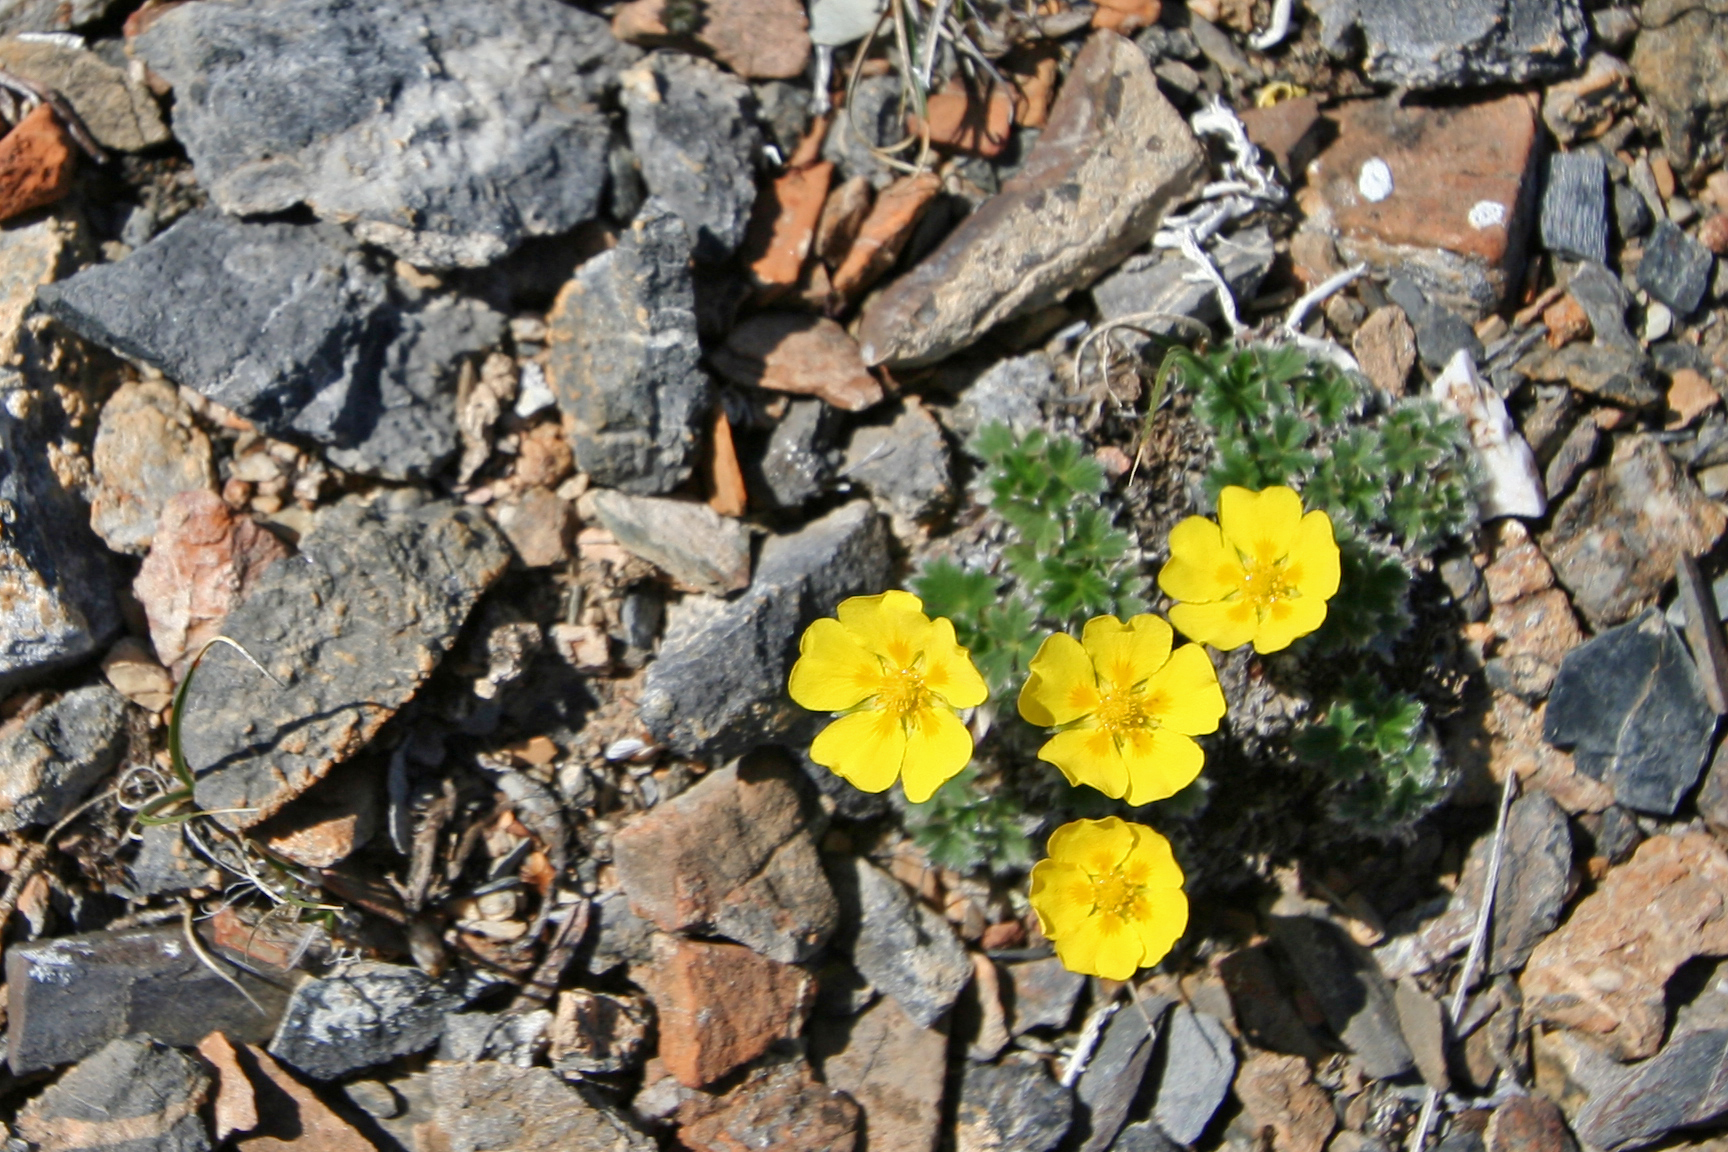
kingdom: Plantae
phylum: Tracheophyta
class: Magnoliopsida
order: Rosales
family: Rosaceae
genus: Potentilla
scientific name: Potentilla subvahliana
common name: Far northern cinquefoil
